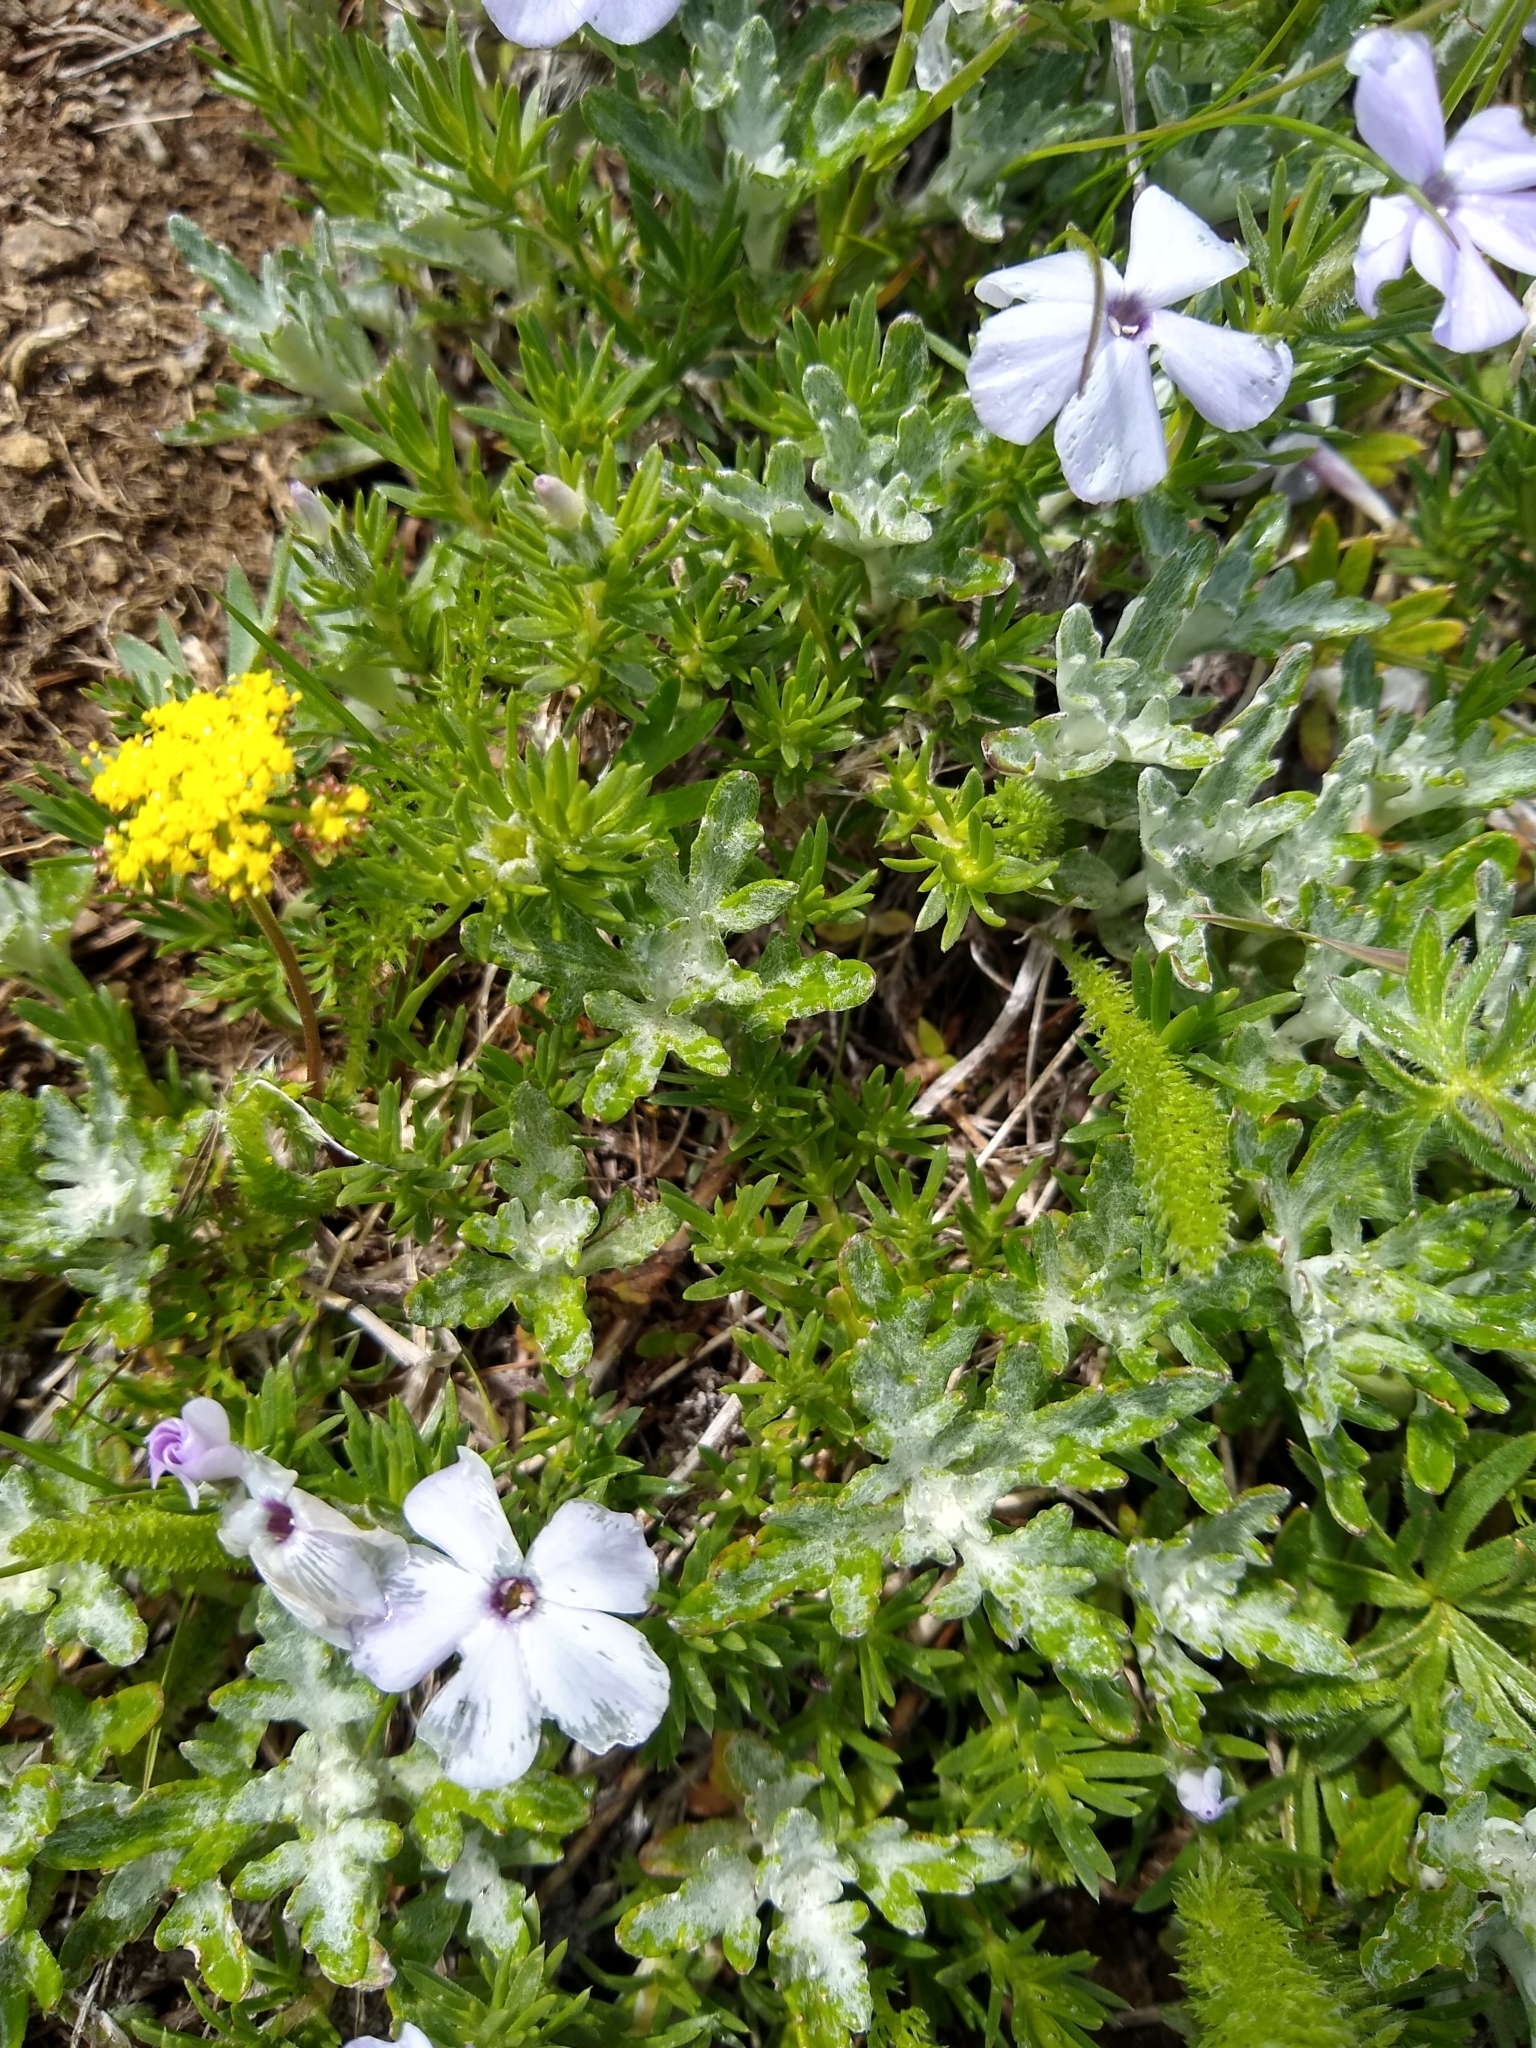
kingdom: Plantae
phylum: Tracheophyta
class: Magnoliopsida
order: Ericales
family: Polemoniaceae
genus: Phlox
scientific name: Phlox diffusa
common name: Mat phlox
